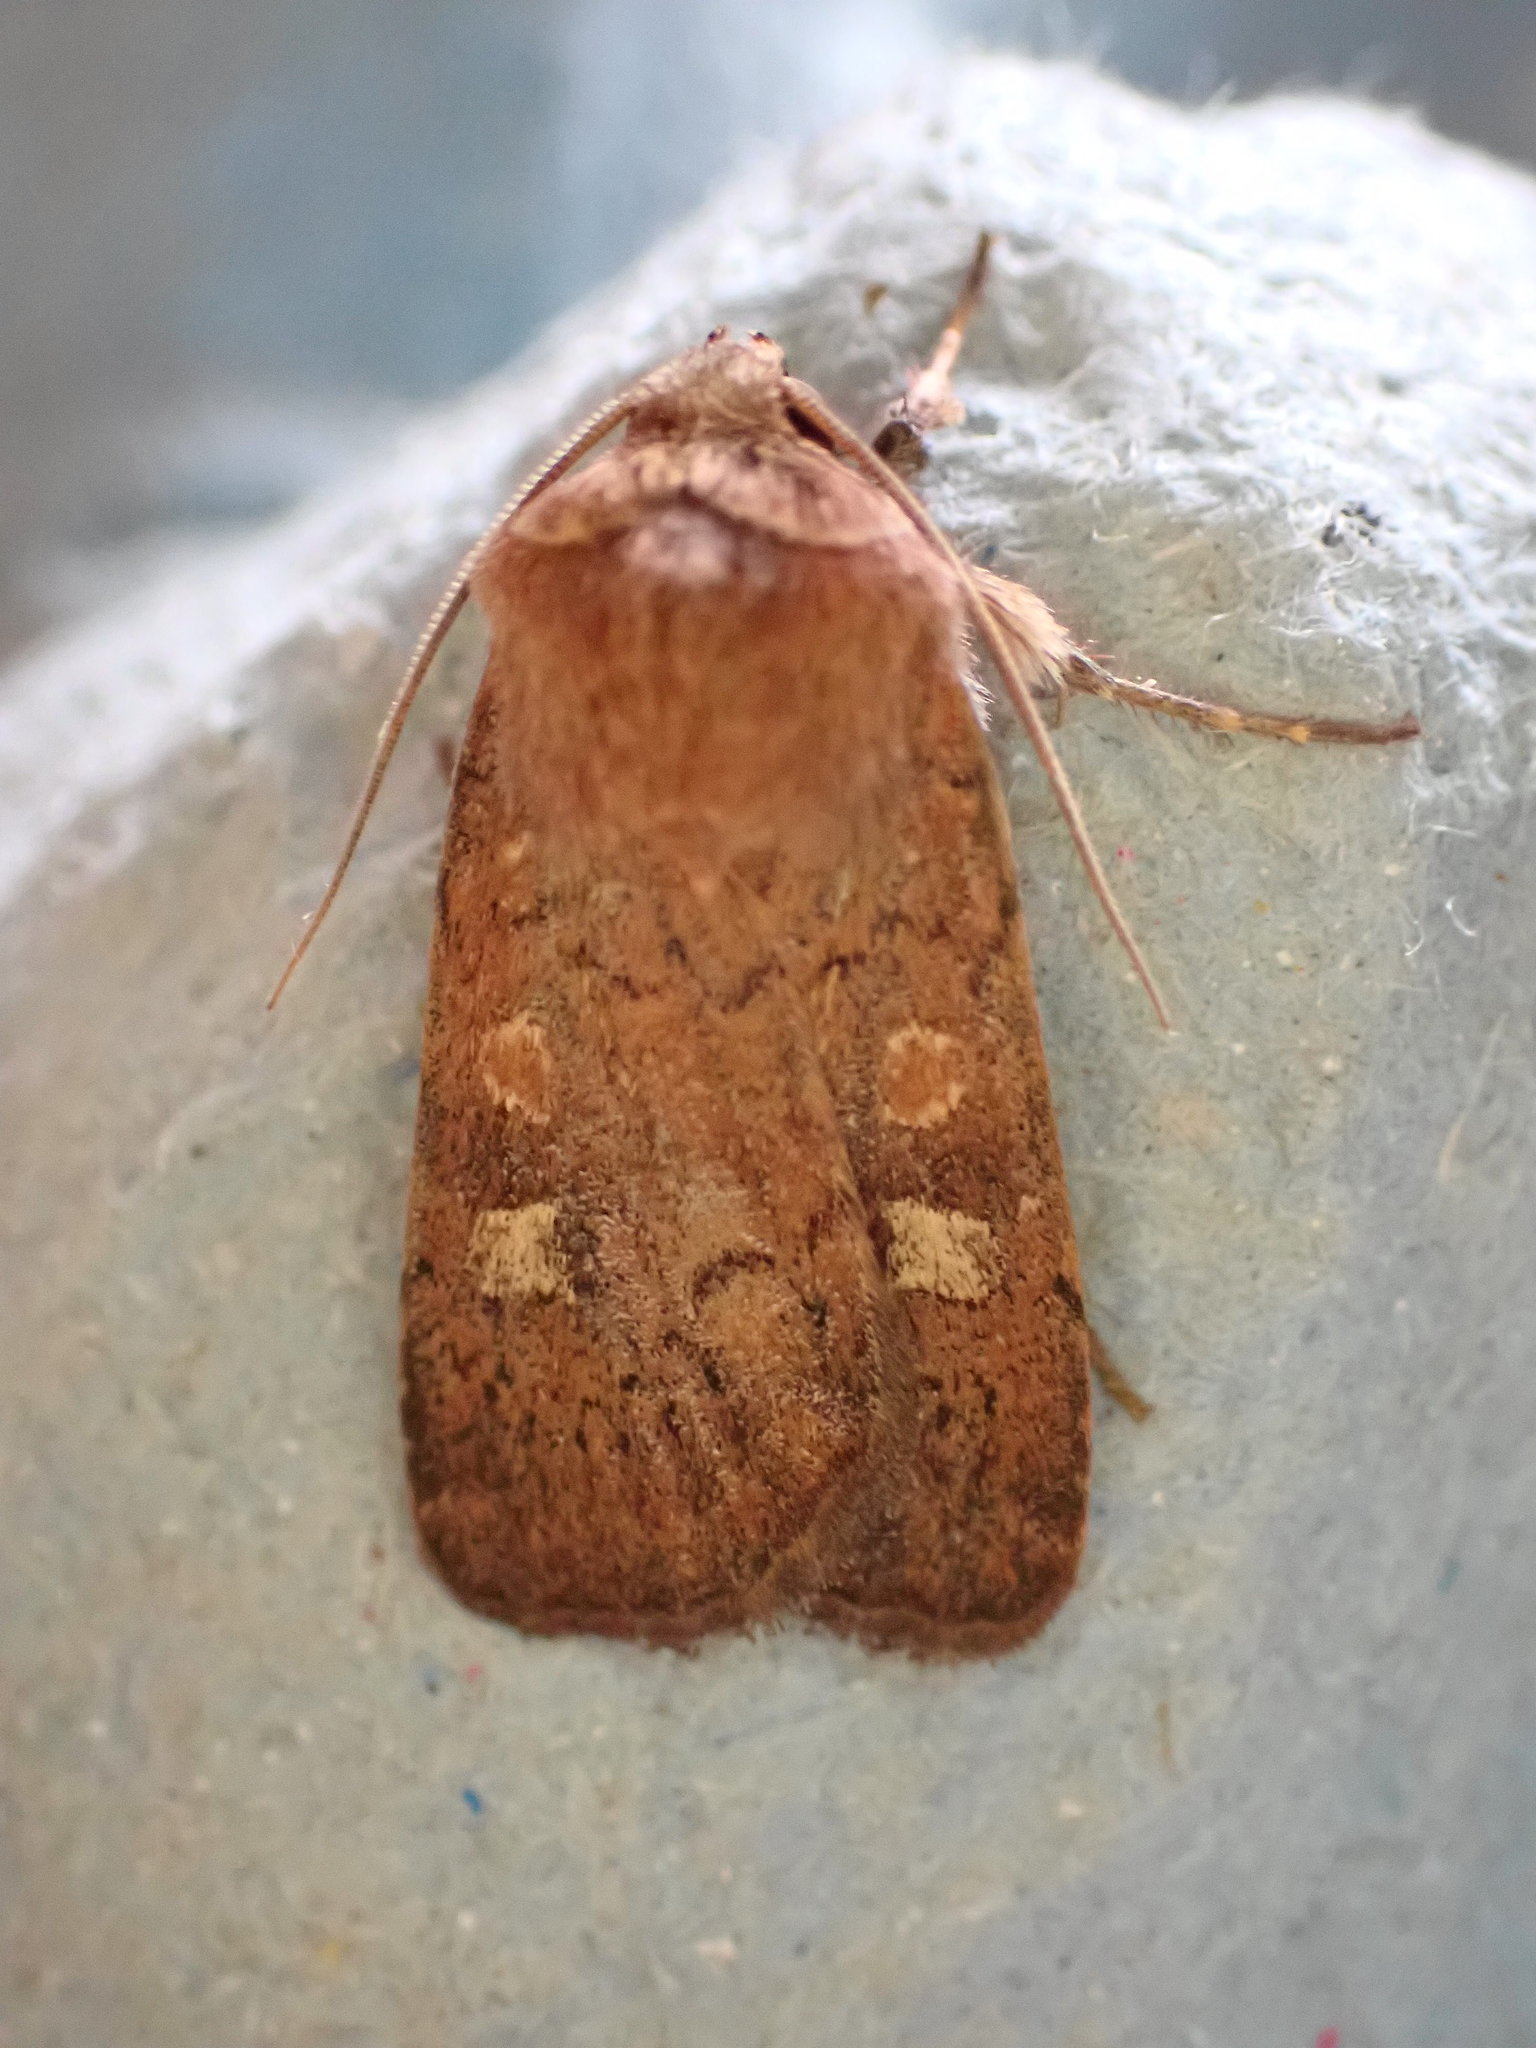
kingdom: Animalia
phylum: Arthropoda
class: Insecta
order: Lepidoptera
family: Noctuidae
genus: Xestia
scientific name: Xestia xanthographa
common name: Square-spot rustic
